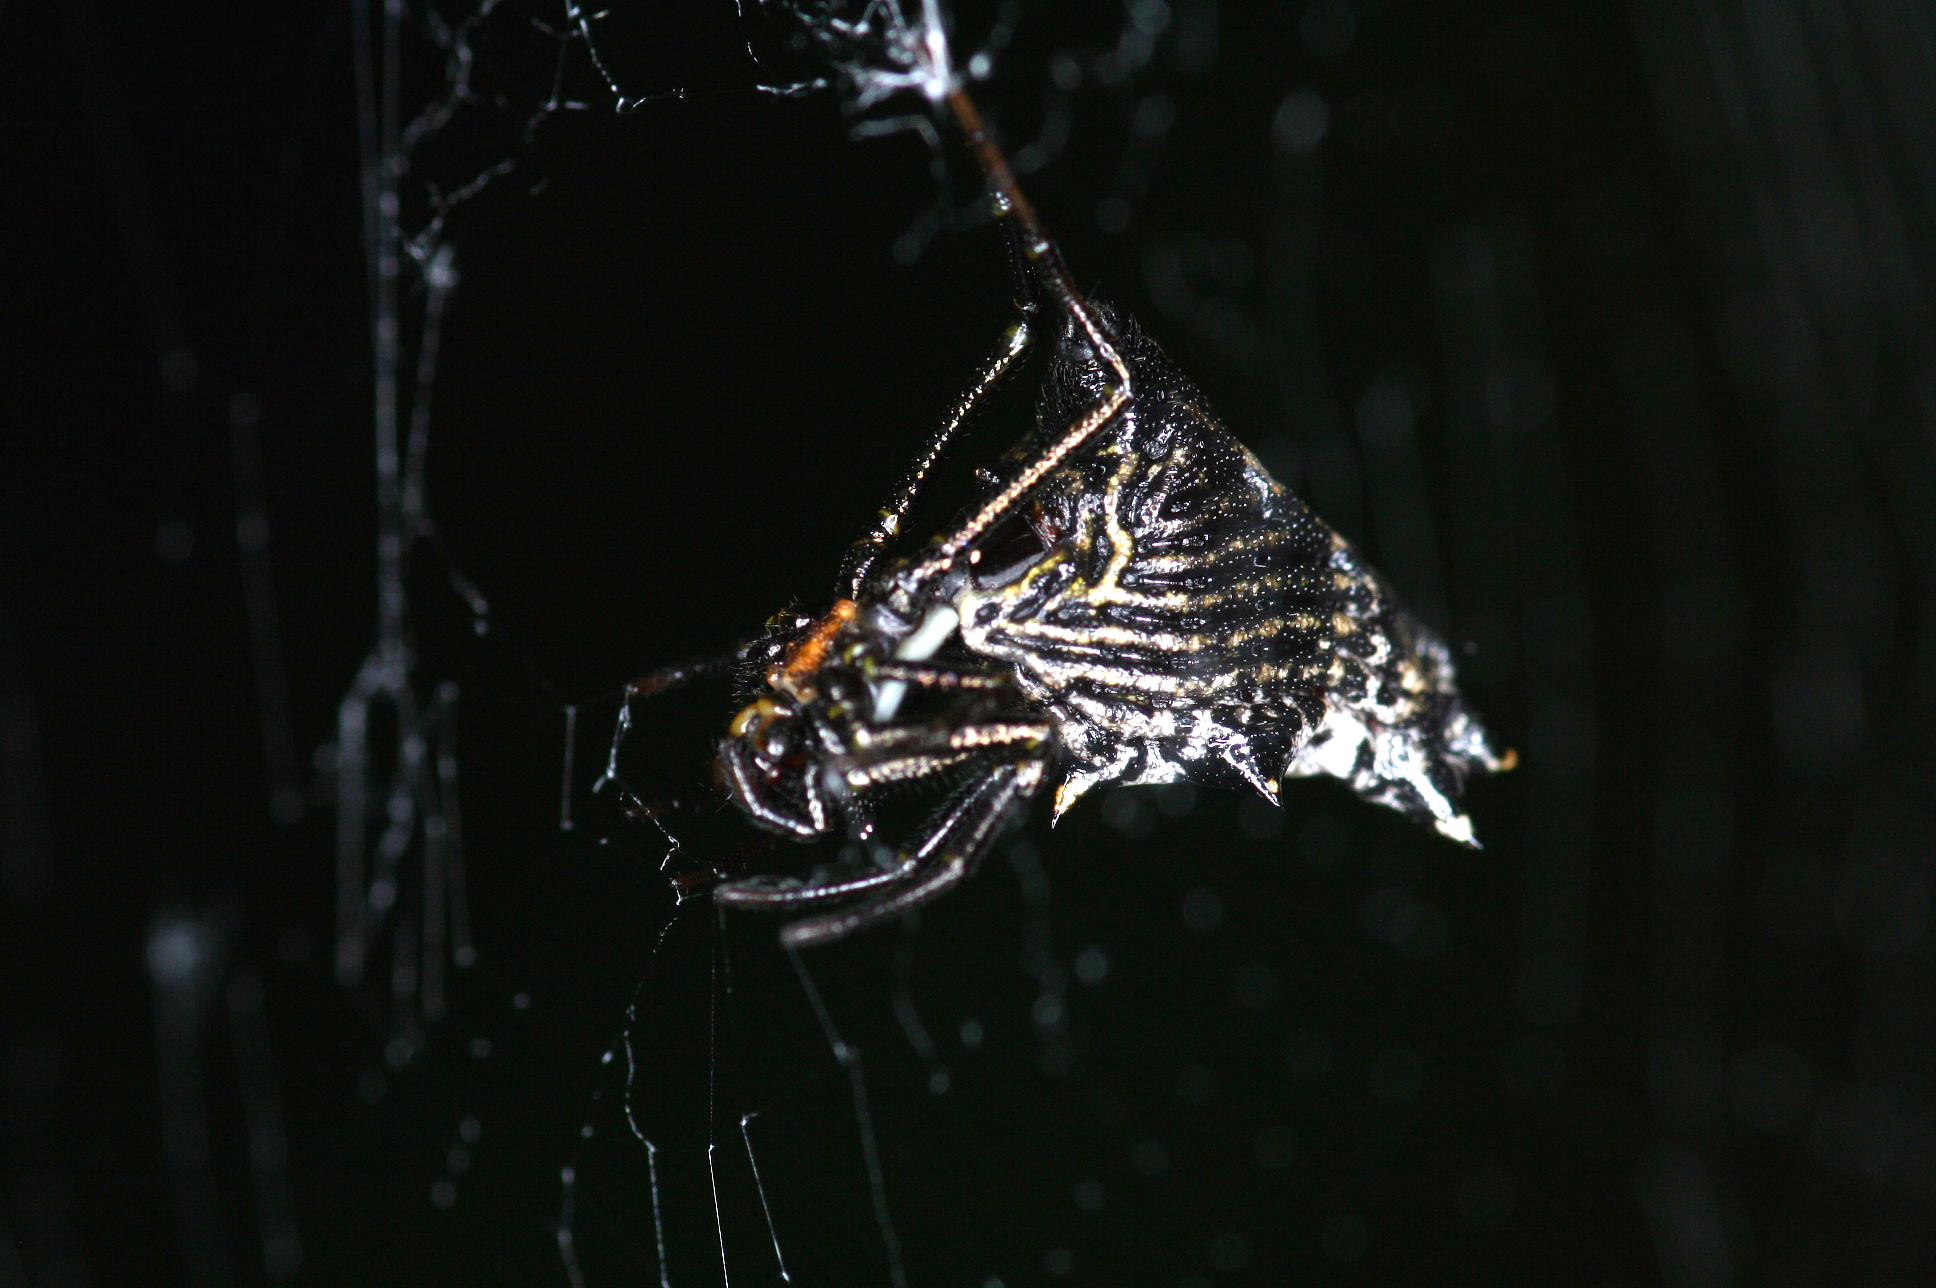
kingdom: Animalia
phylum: Arthropoda
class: Arachnida
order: Araneae
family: Araneidae
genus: Micrathena
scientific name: Micrathena gracilis
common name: Orb weavers
